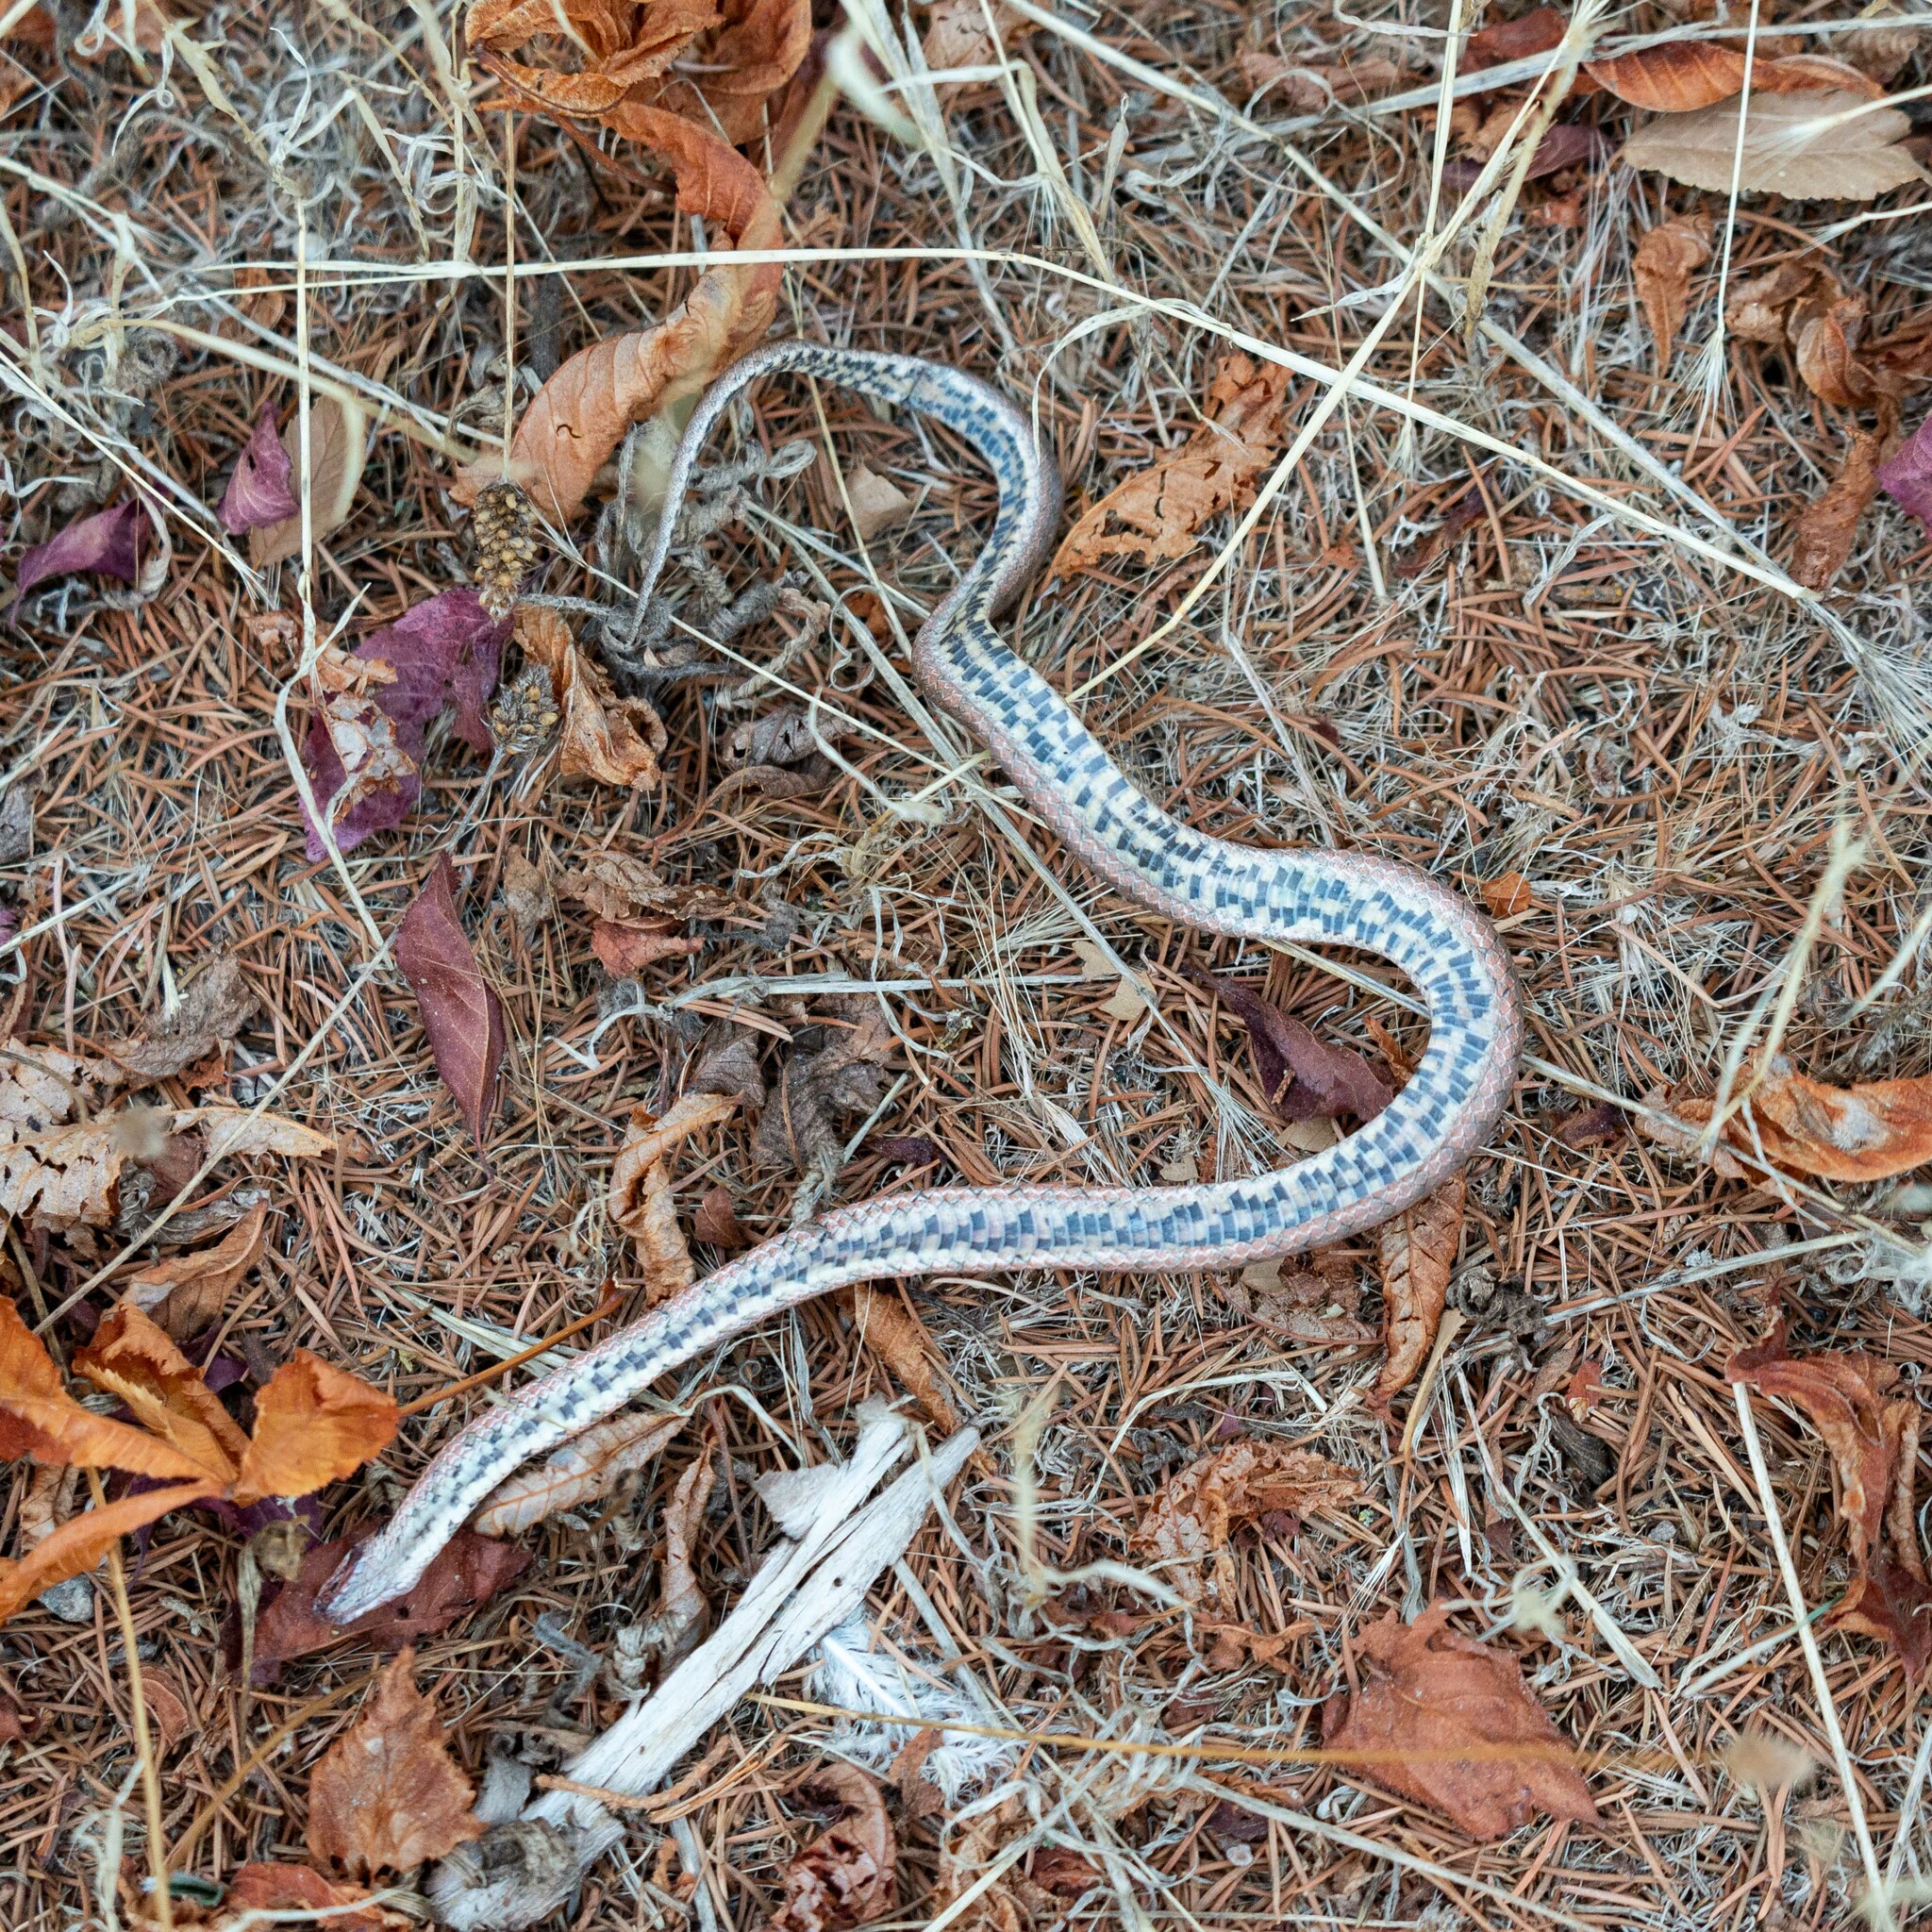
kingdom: Animalia
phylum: Chordata
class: Squamata
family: Colubridae
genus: Coronella
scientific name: Coronella girondica
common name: Southern smooth snake
